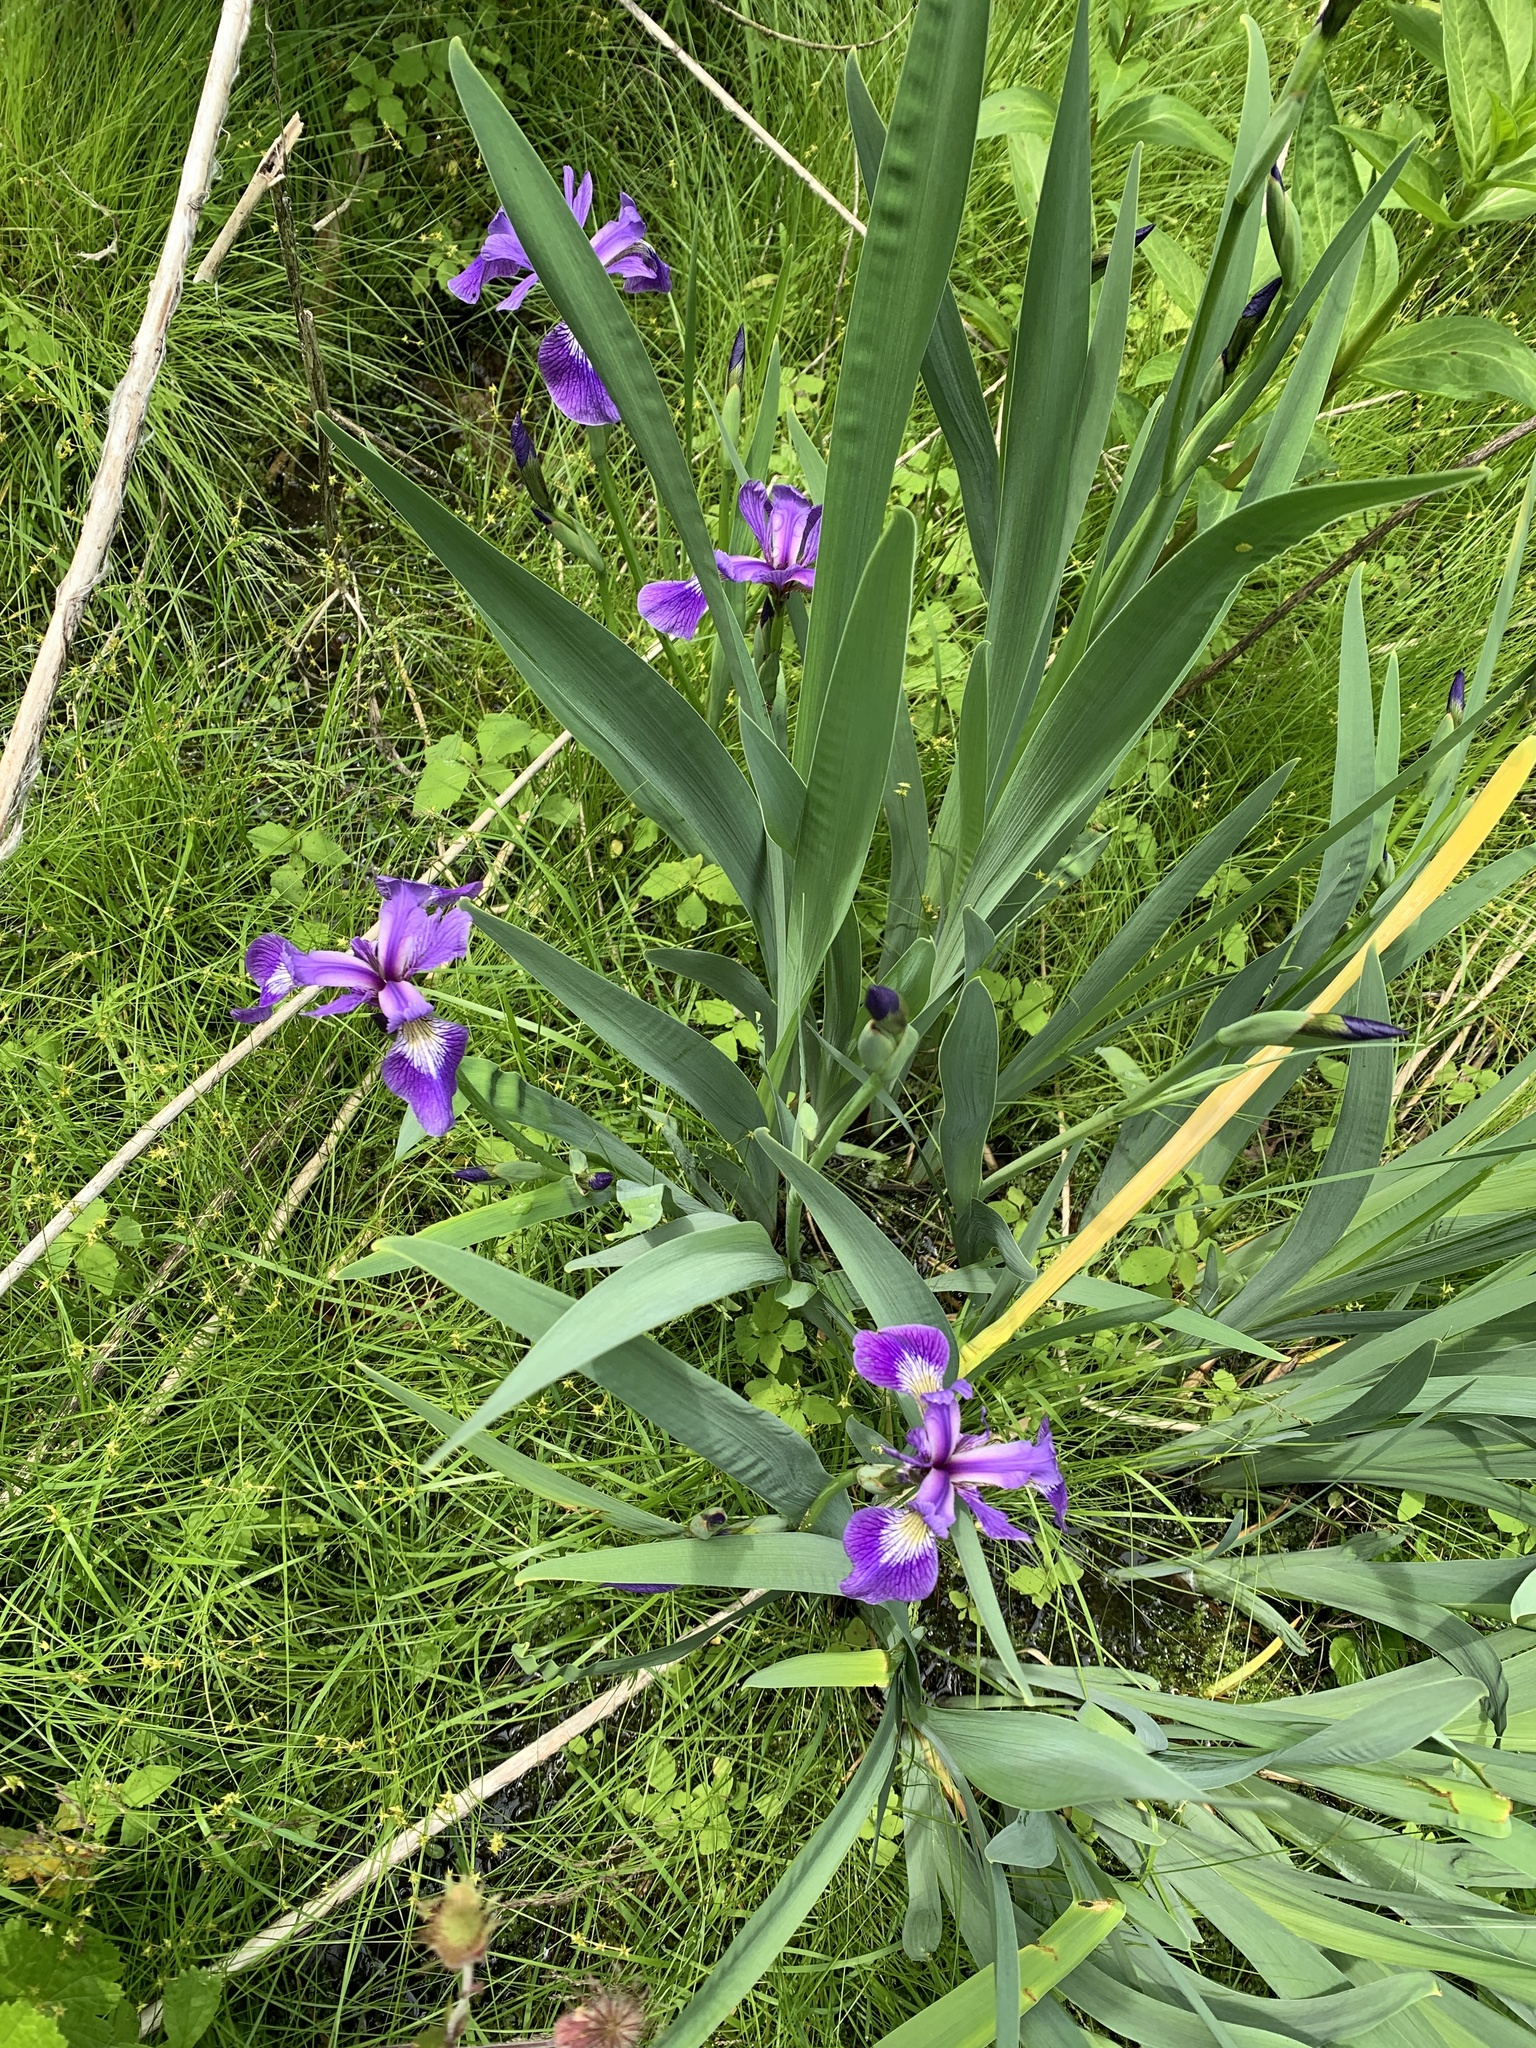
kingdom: Plantae
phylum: Tracheophyta
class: Liliopsida
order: Asparagales
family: Iridaceae
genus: Iris
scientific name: Iris versicolor
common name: Purple iris
